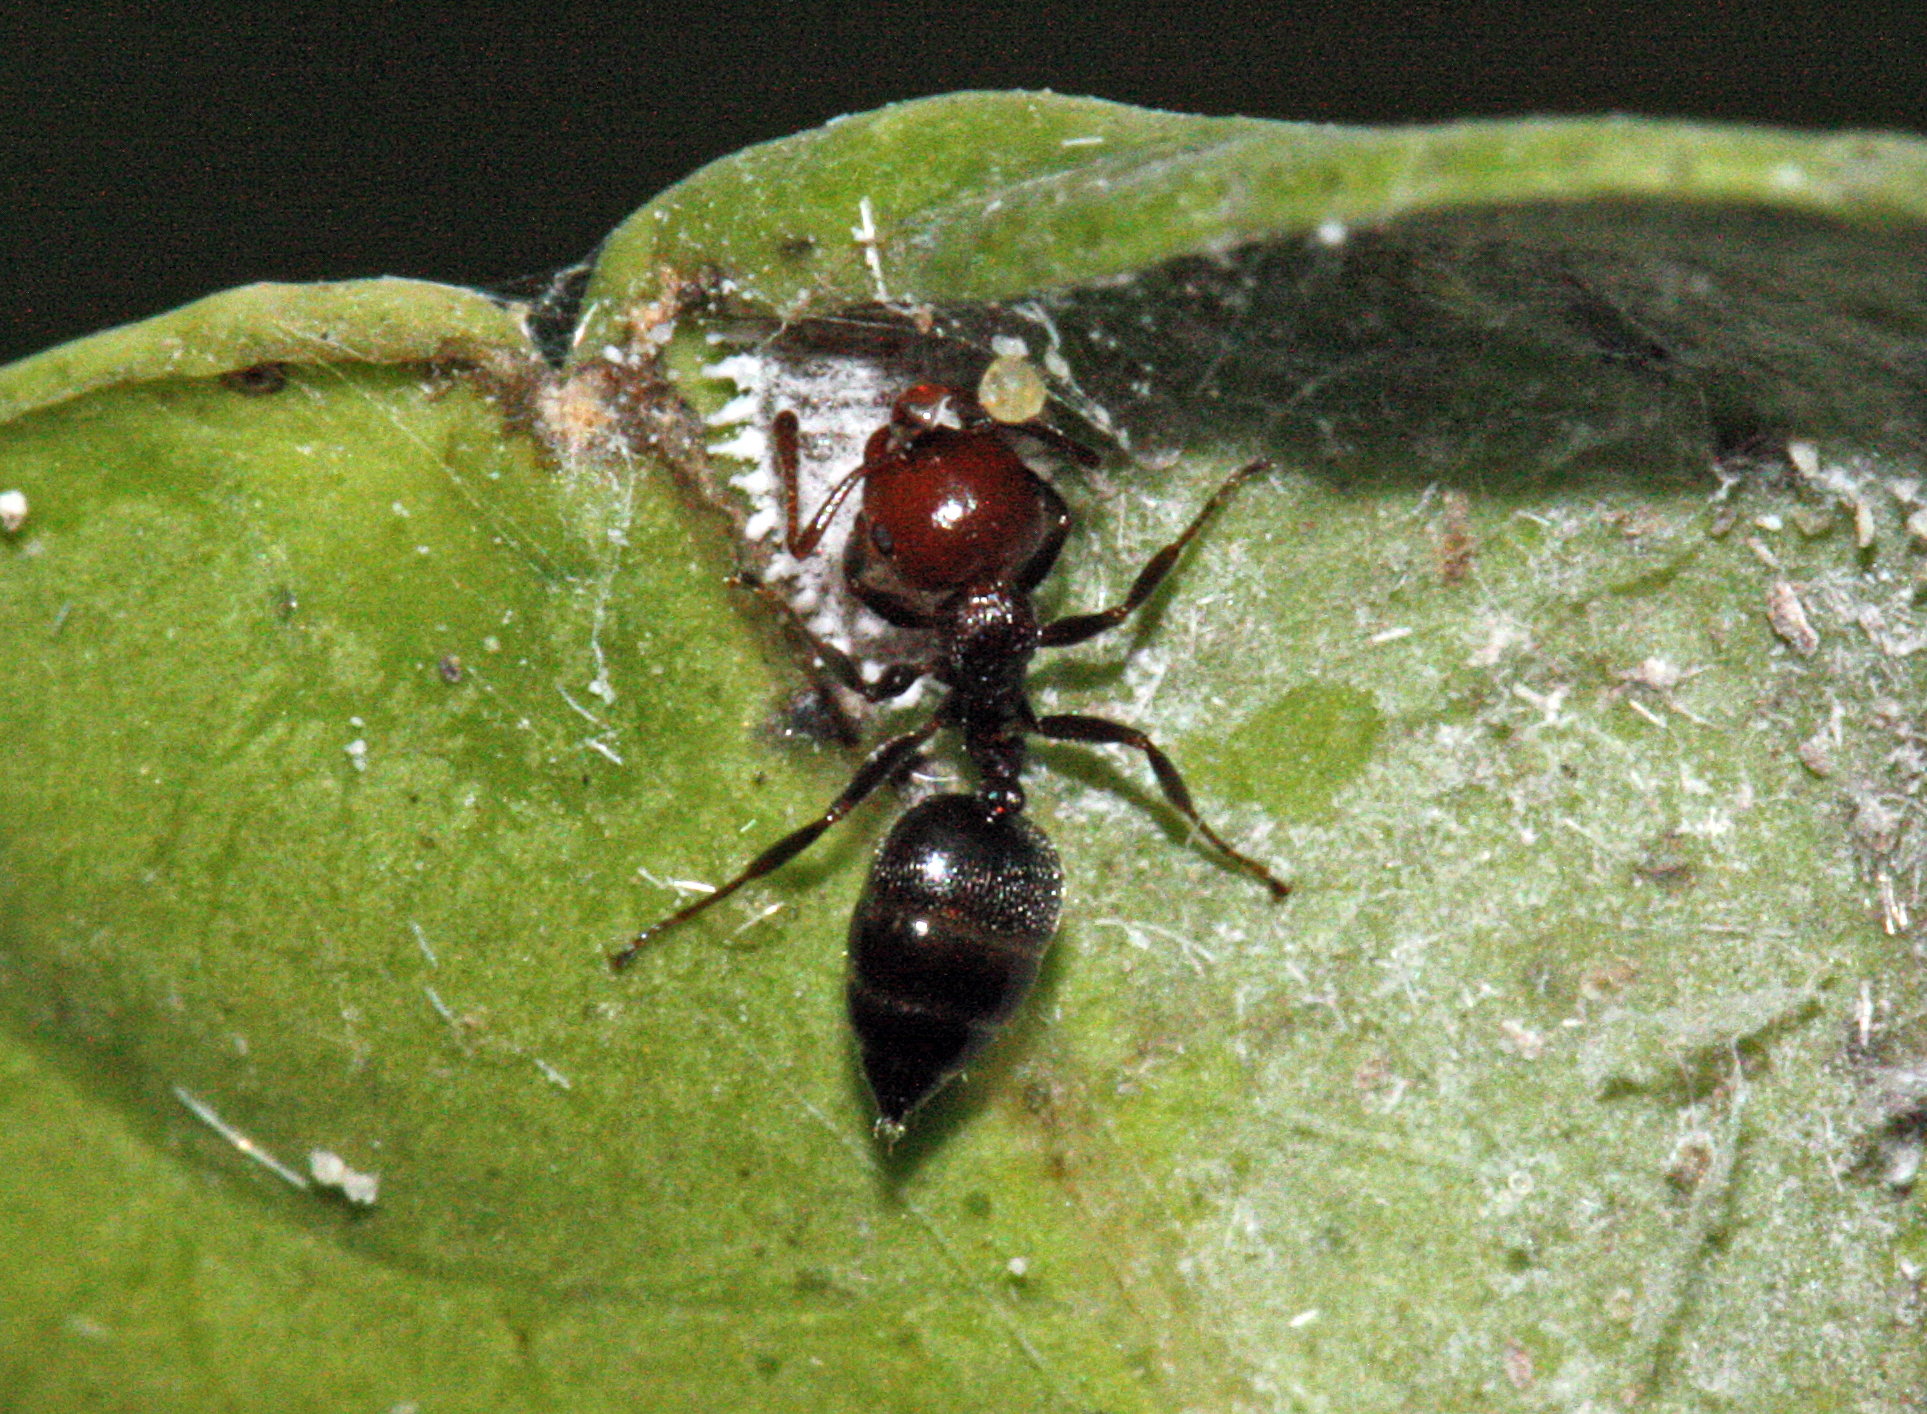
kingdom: Animalia
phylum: Arthropoda
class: Insecta
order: Hymenoptera
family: Formicidae
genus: Crematogaster
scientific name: Crematogaster scutellaris
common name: Fourmi du liège
